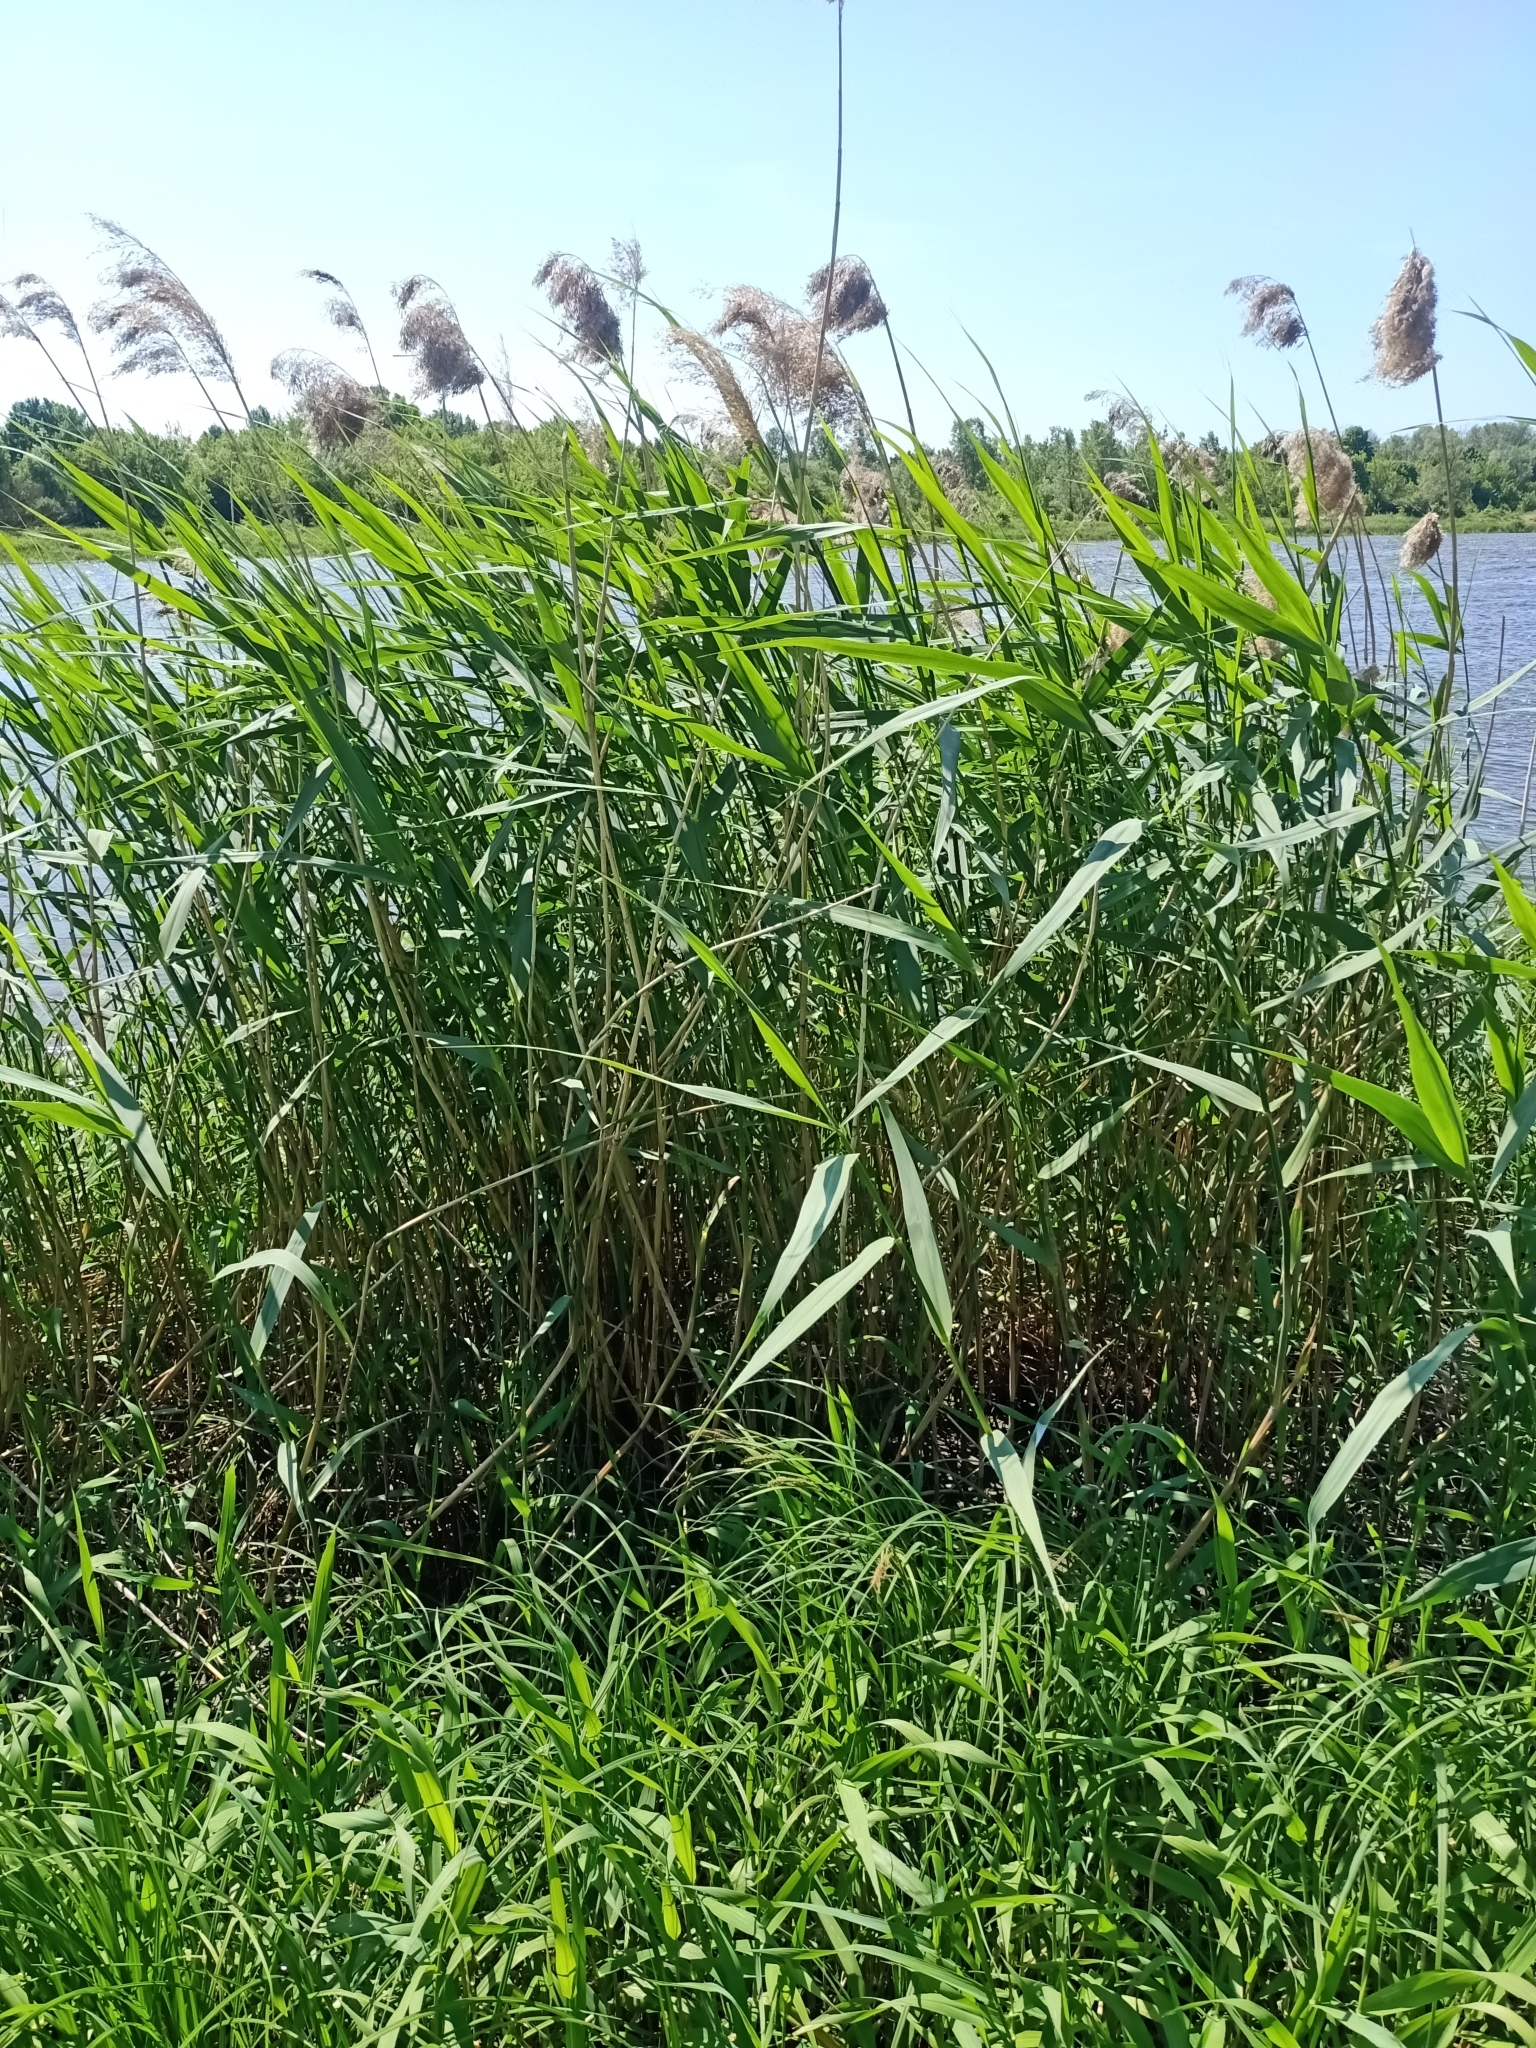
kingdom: Plantae
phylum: Tracheophyta
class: Liliopsida
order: Poales
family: Poaceae
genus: Phragmites
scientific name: Phragmites australis
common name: Common reed
